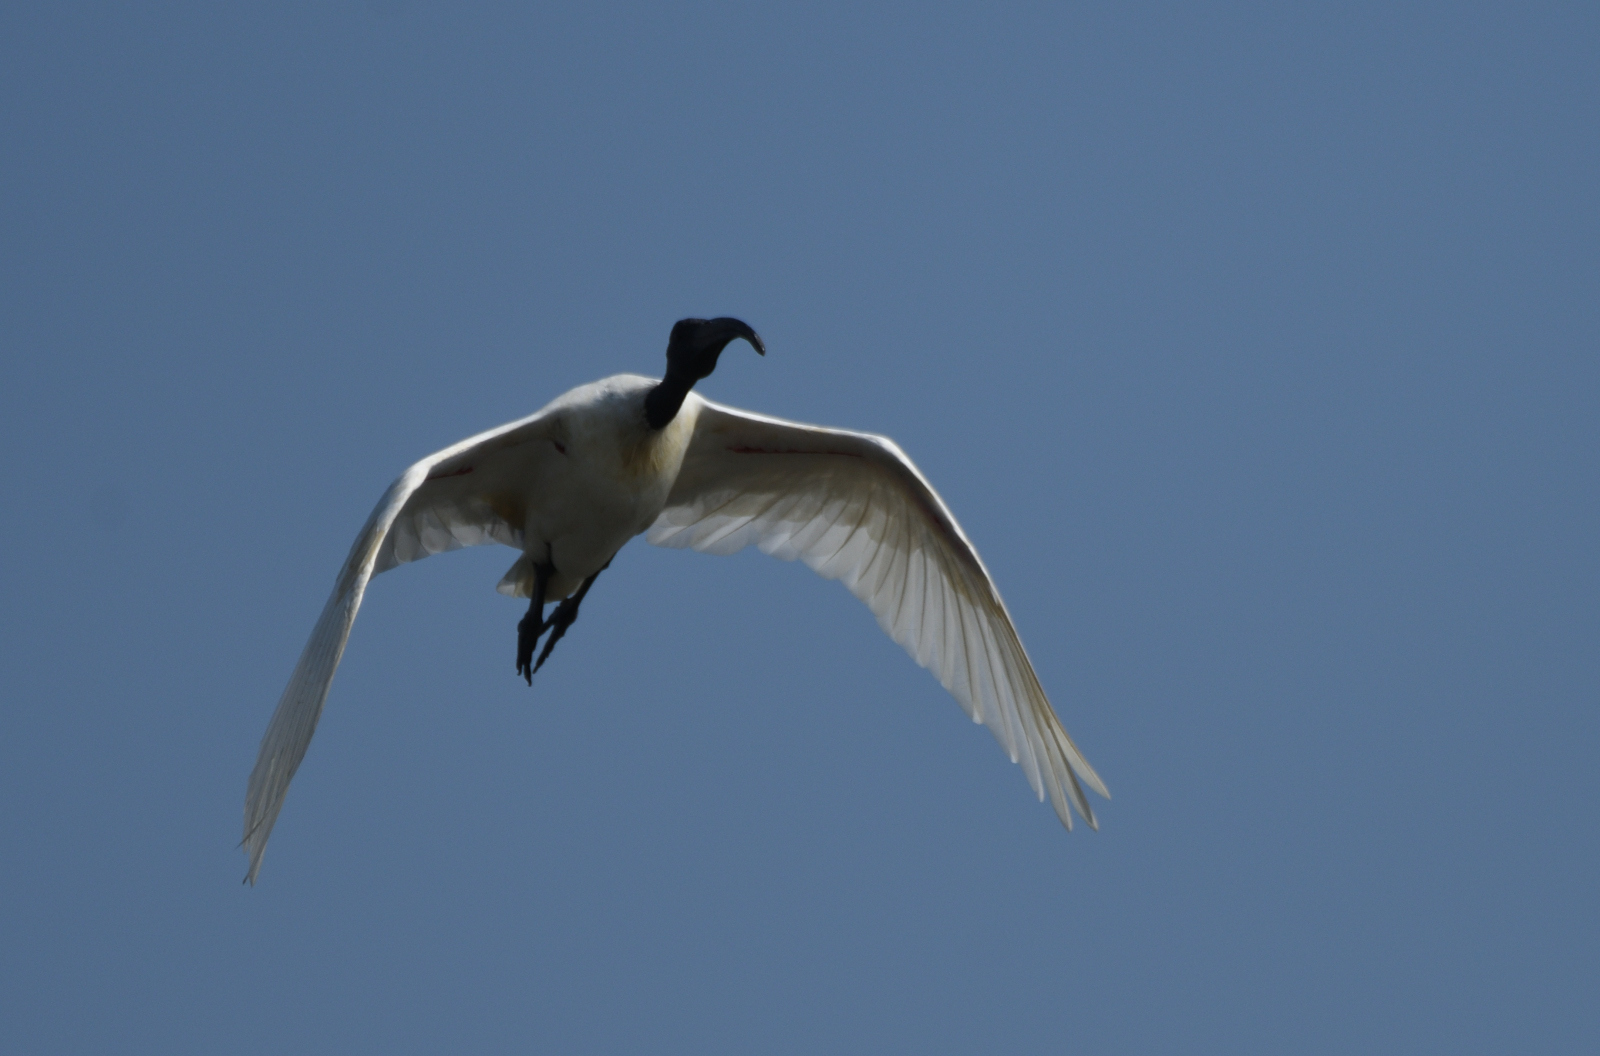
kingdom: Animalia
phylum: Chordata
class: Aves
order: Pelecaniformes
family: Threskiornithidae
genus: Threskiornis
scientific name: Threskiornis melanocephalus
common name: Black-headed ibis
